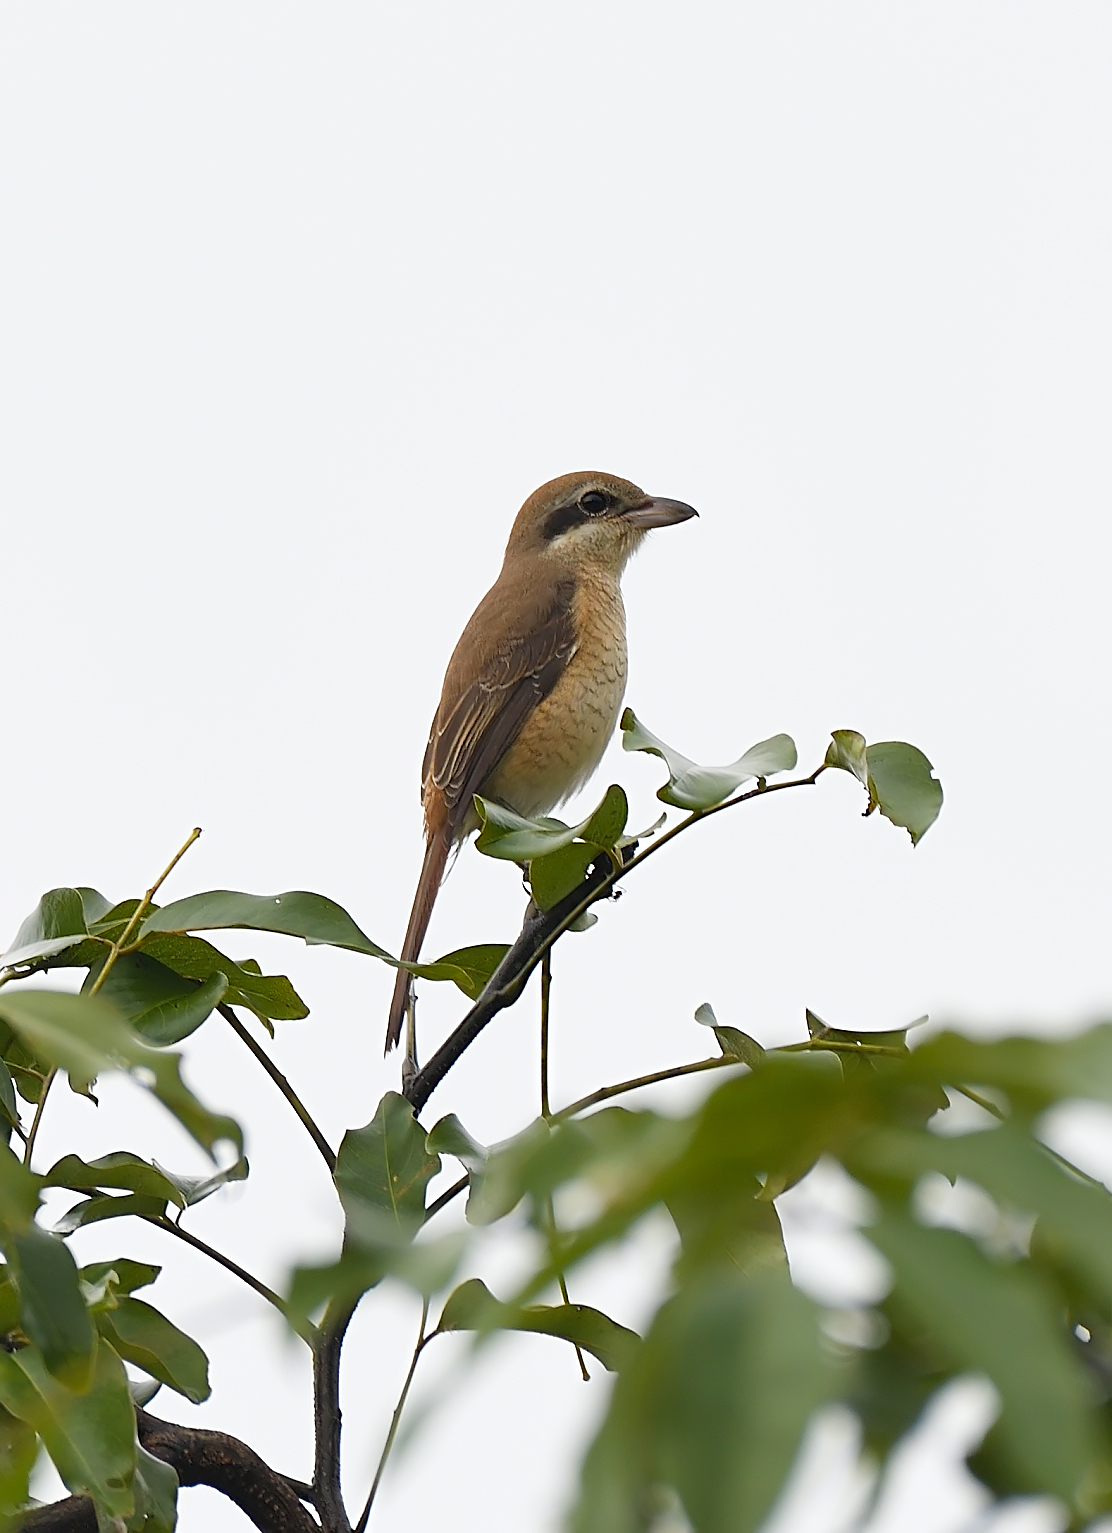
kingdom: Animalia
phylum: Chordata
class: Aves
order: Passeriformes
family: Laniidae
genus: Lanius
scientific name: Lanius cristatus
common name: Brown shrike
